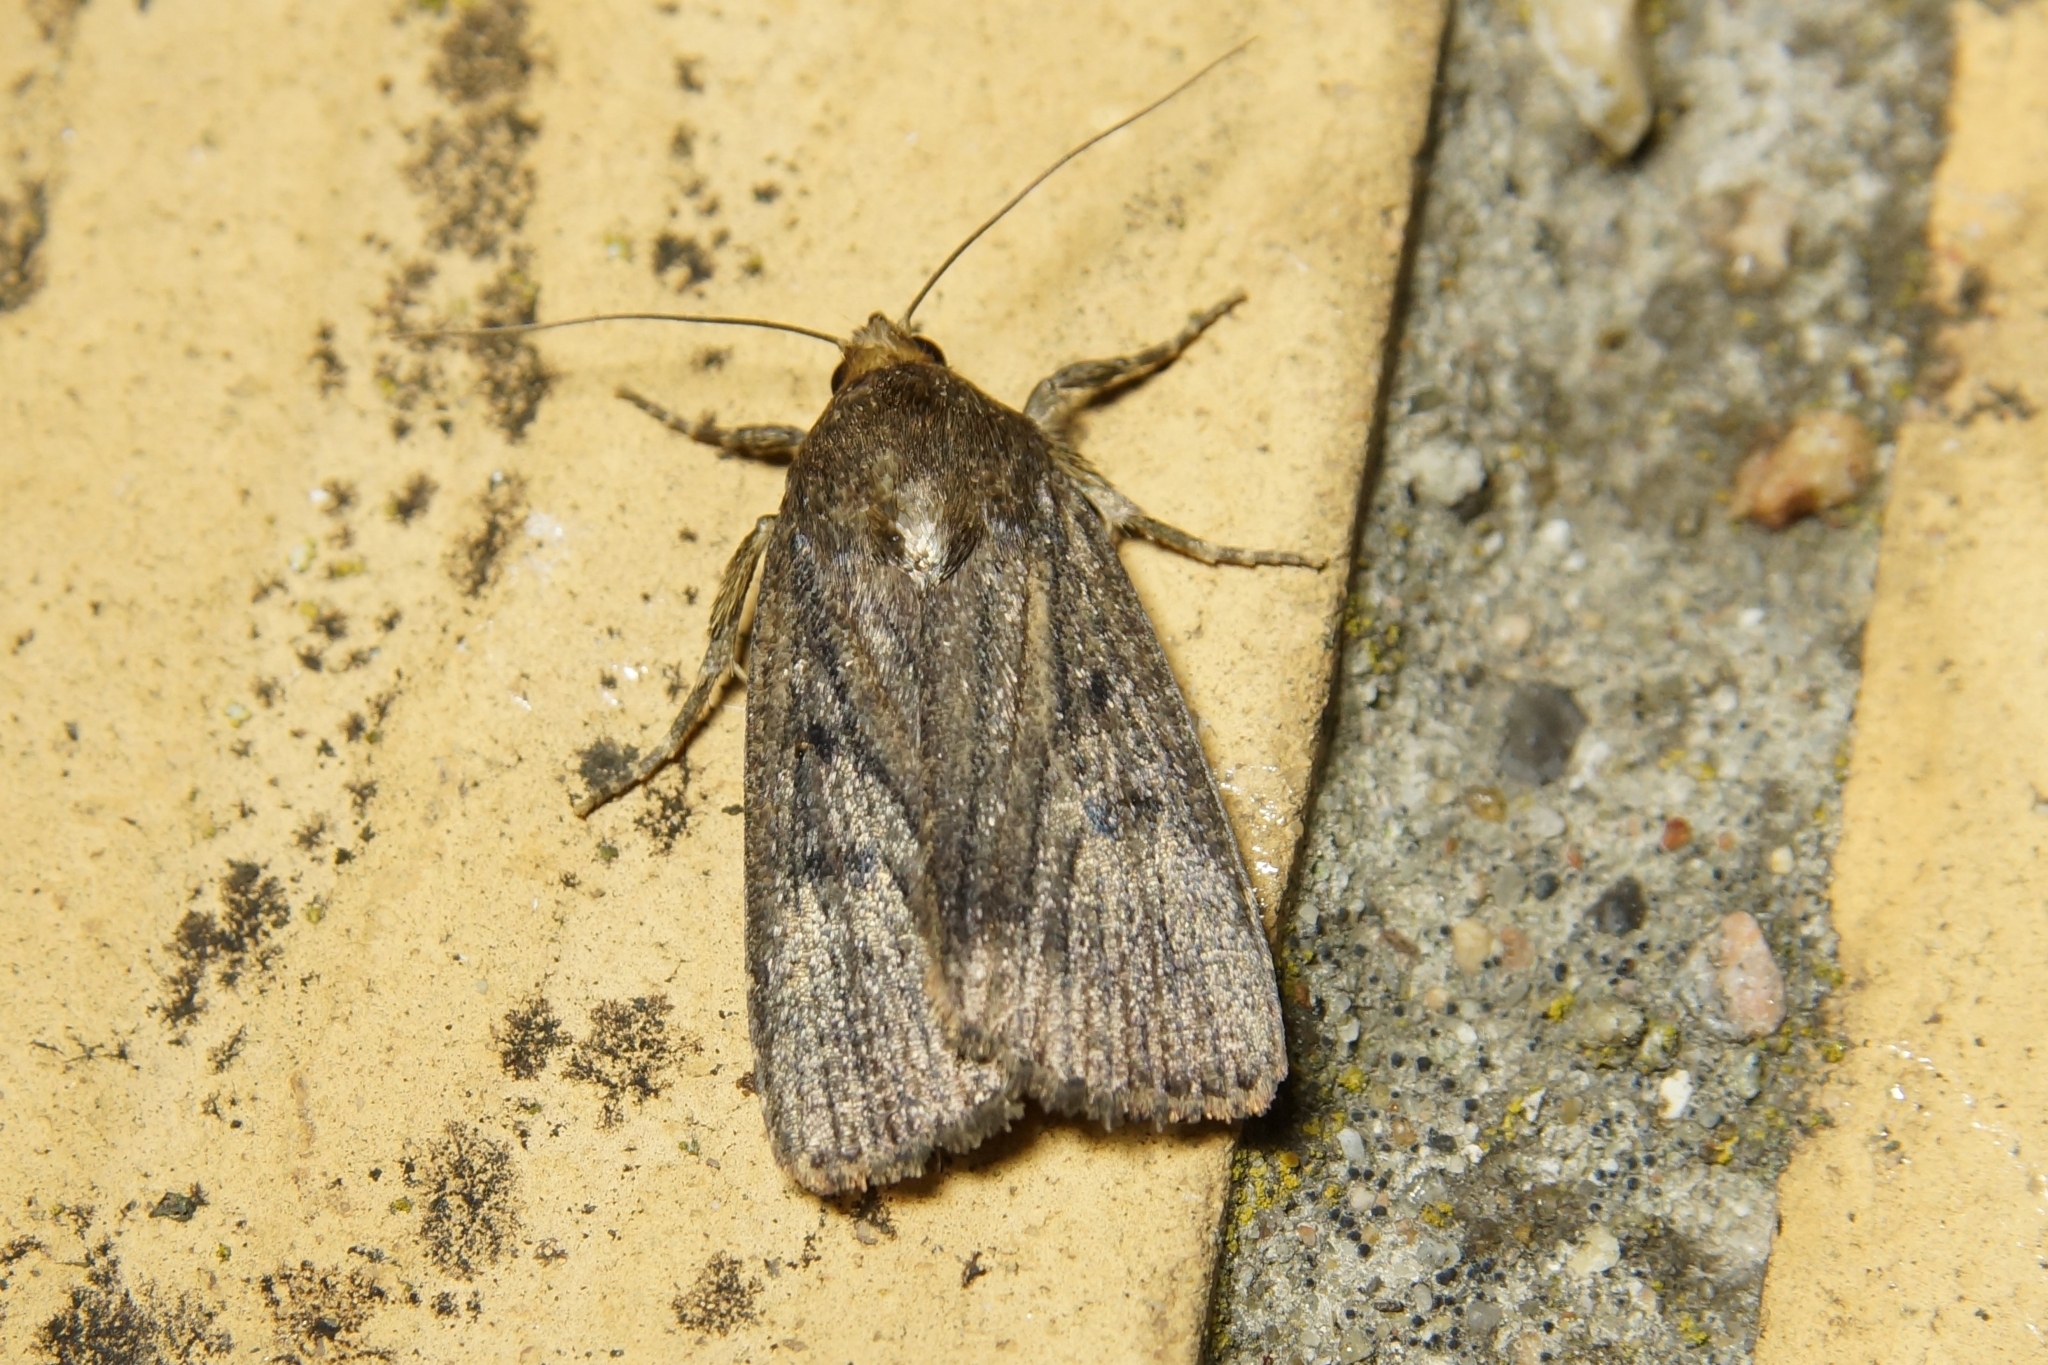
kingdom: Animalia
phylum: Arthropoda
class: Insecta
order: Lepidoptera
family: Noctuidae
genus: Amphipyra
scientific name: Amphipyra tragopoginis
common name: Mouse moth
